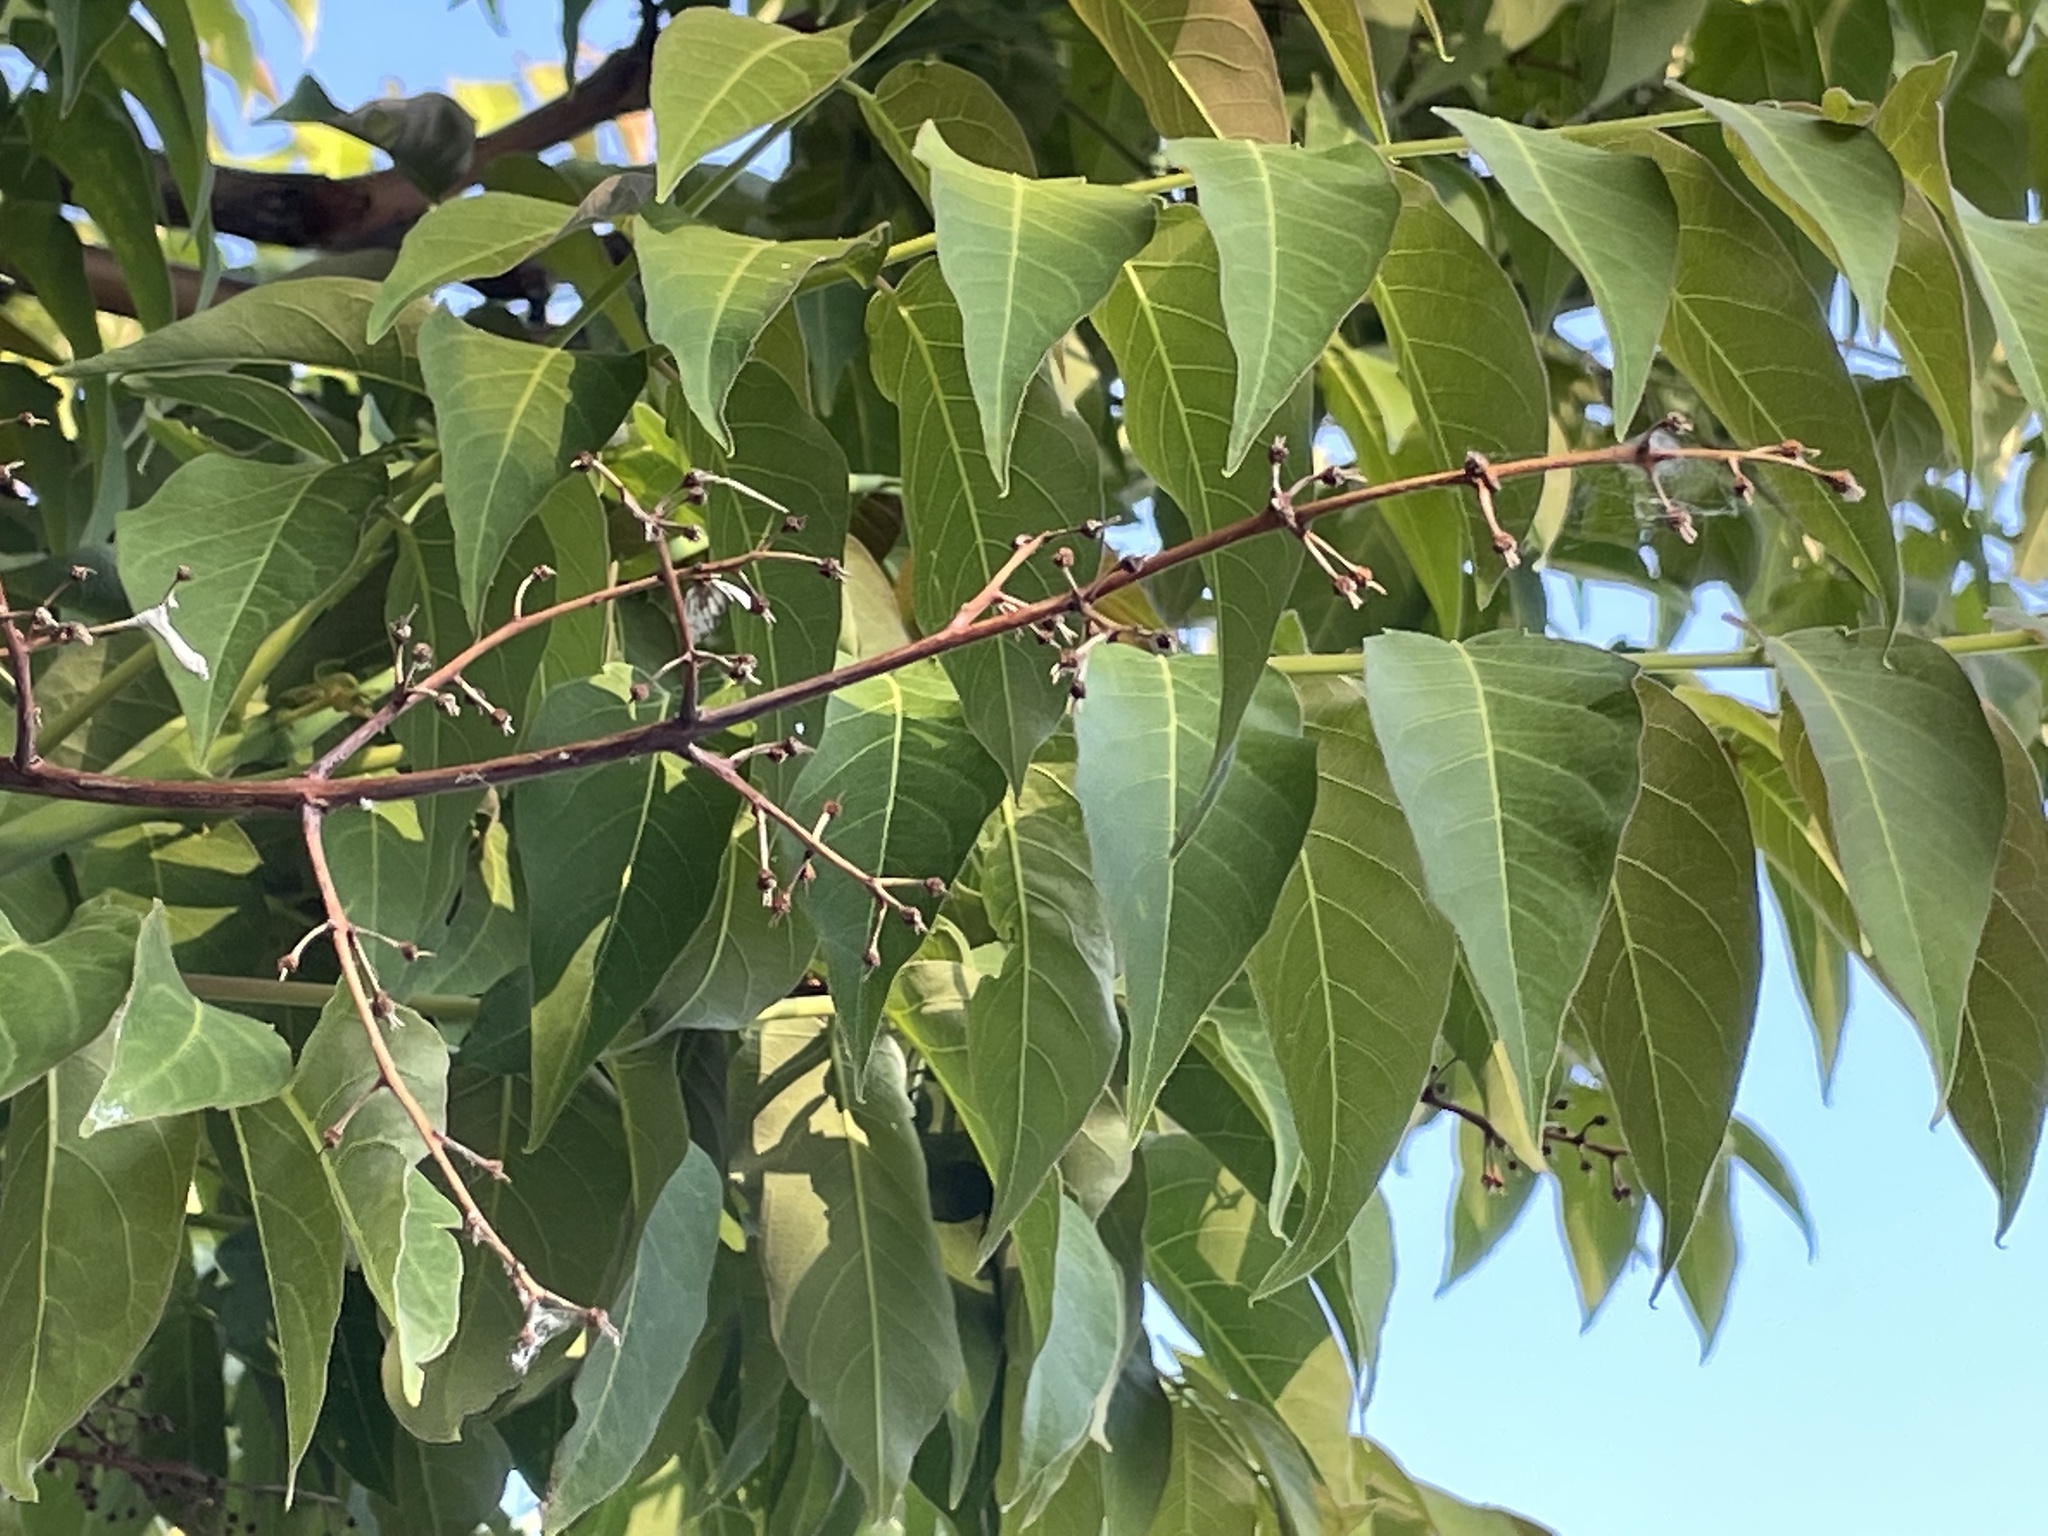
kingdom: Plantae
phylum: Tracheophyta
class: Magnoliopsida
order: Sapindales
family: Simaroubaceae
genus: Ailanthus
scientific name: Ailanthus altissima
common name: Tree-of-heaven
